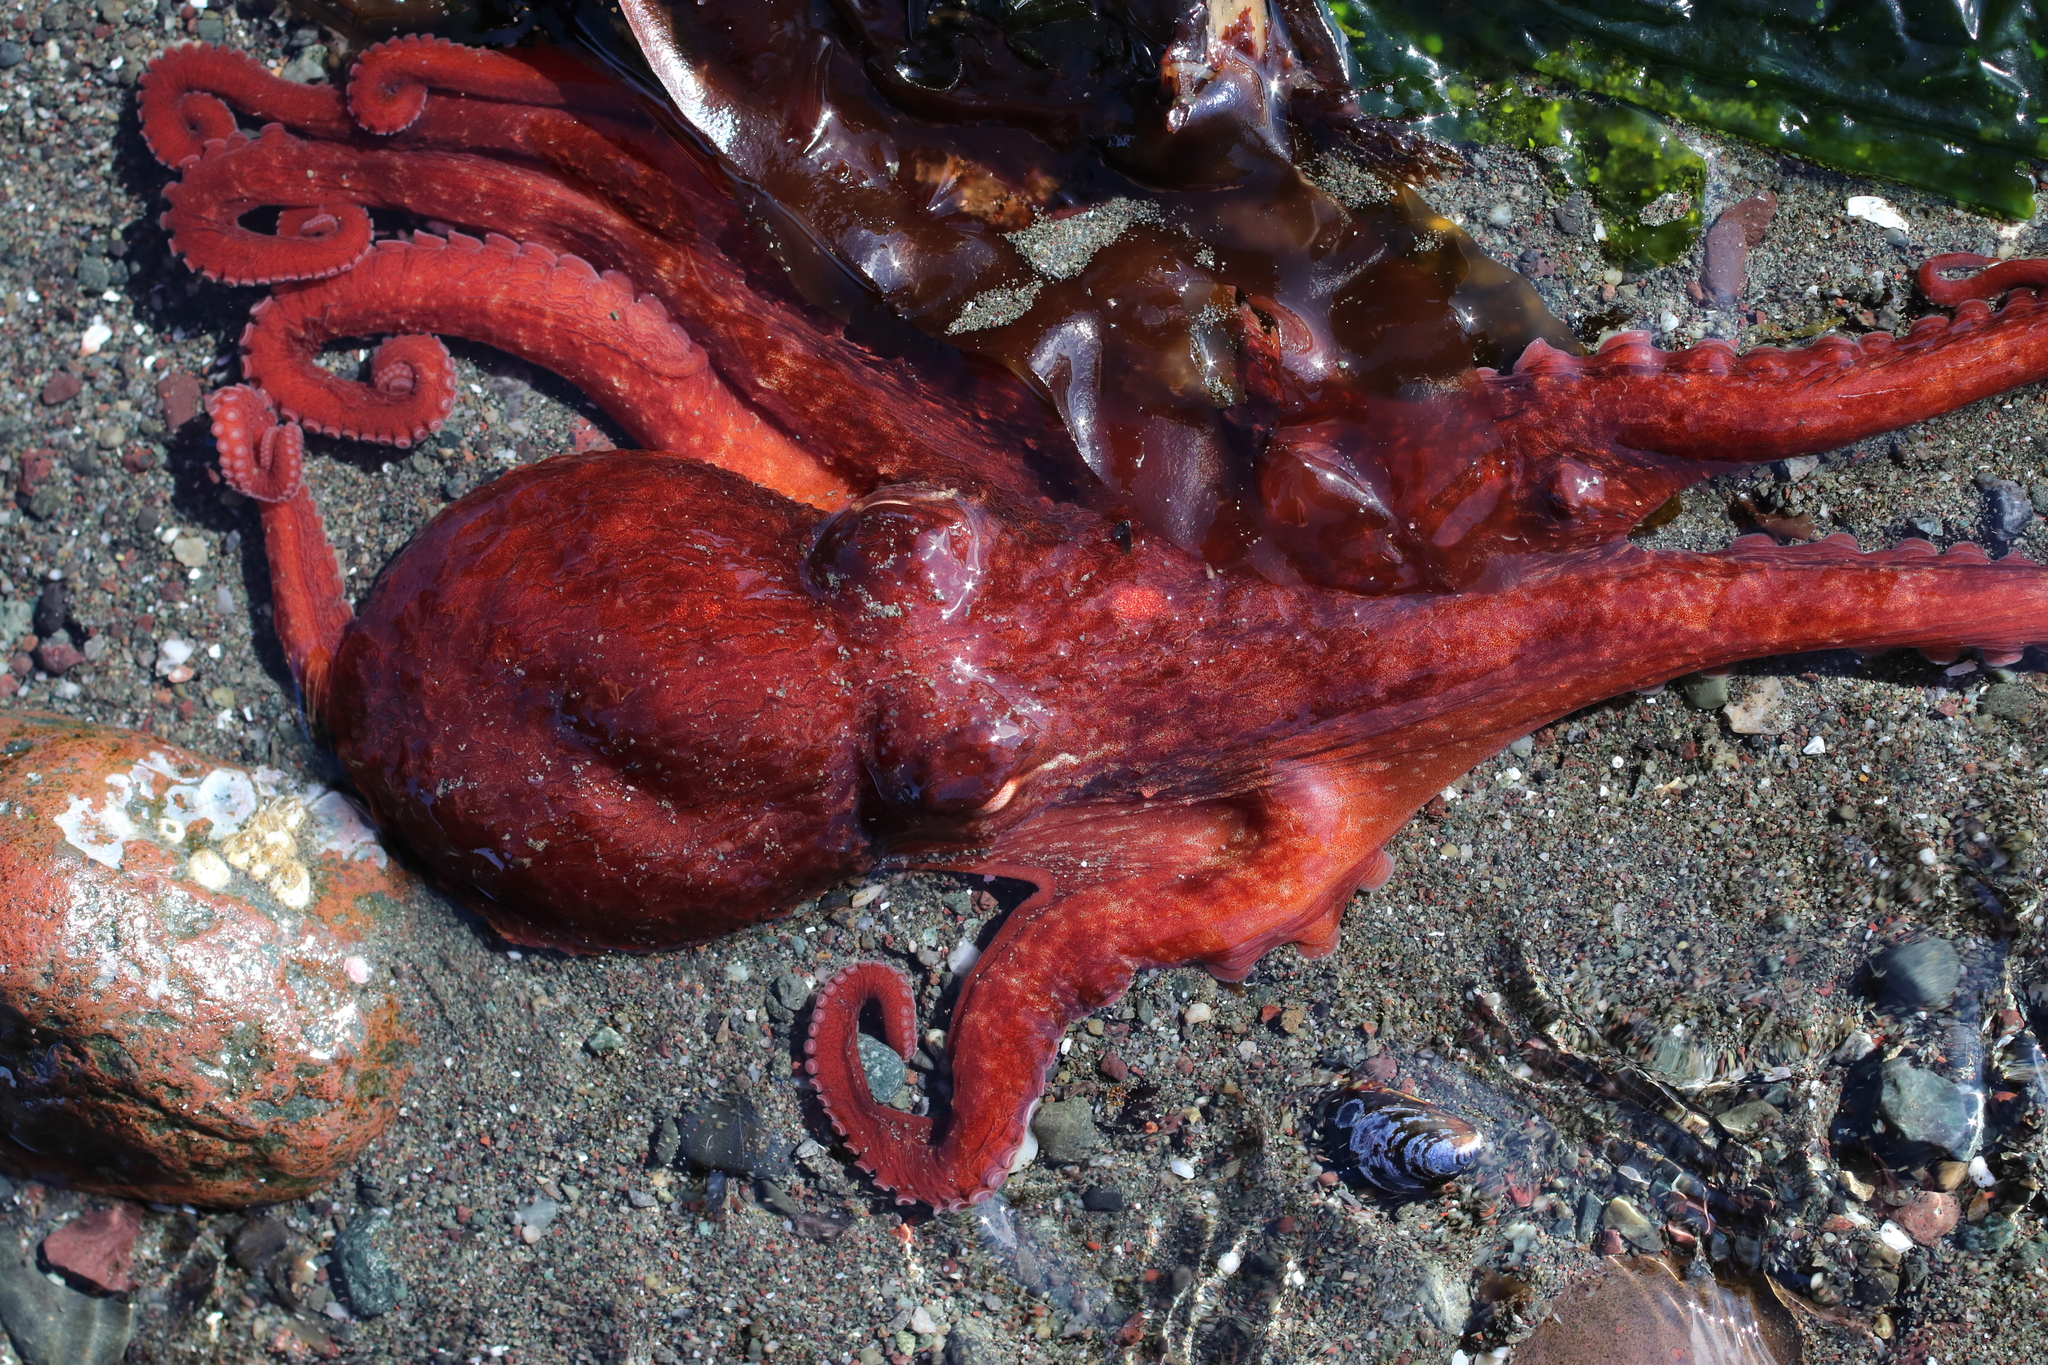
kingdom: Animalia
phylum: Mollusca
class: Cephalopoda
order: Octopoda
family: Enteroctopodidae
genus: Enteroctopus
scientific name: Enteroctopus dofleini
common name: Giant north pacific octopus
